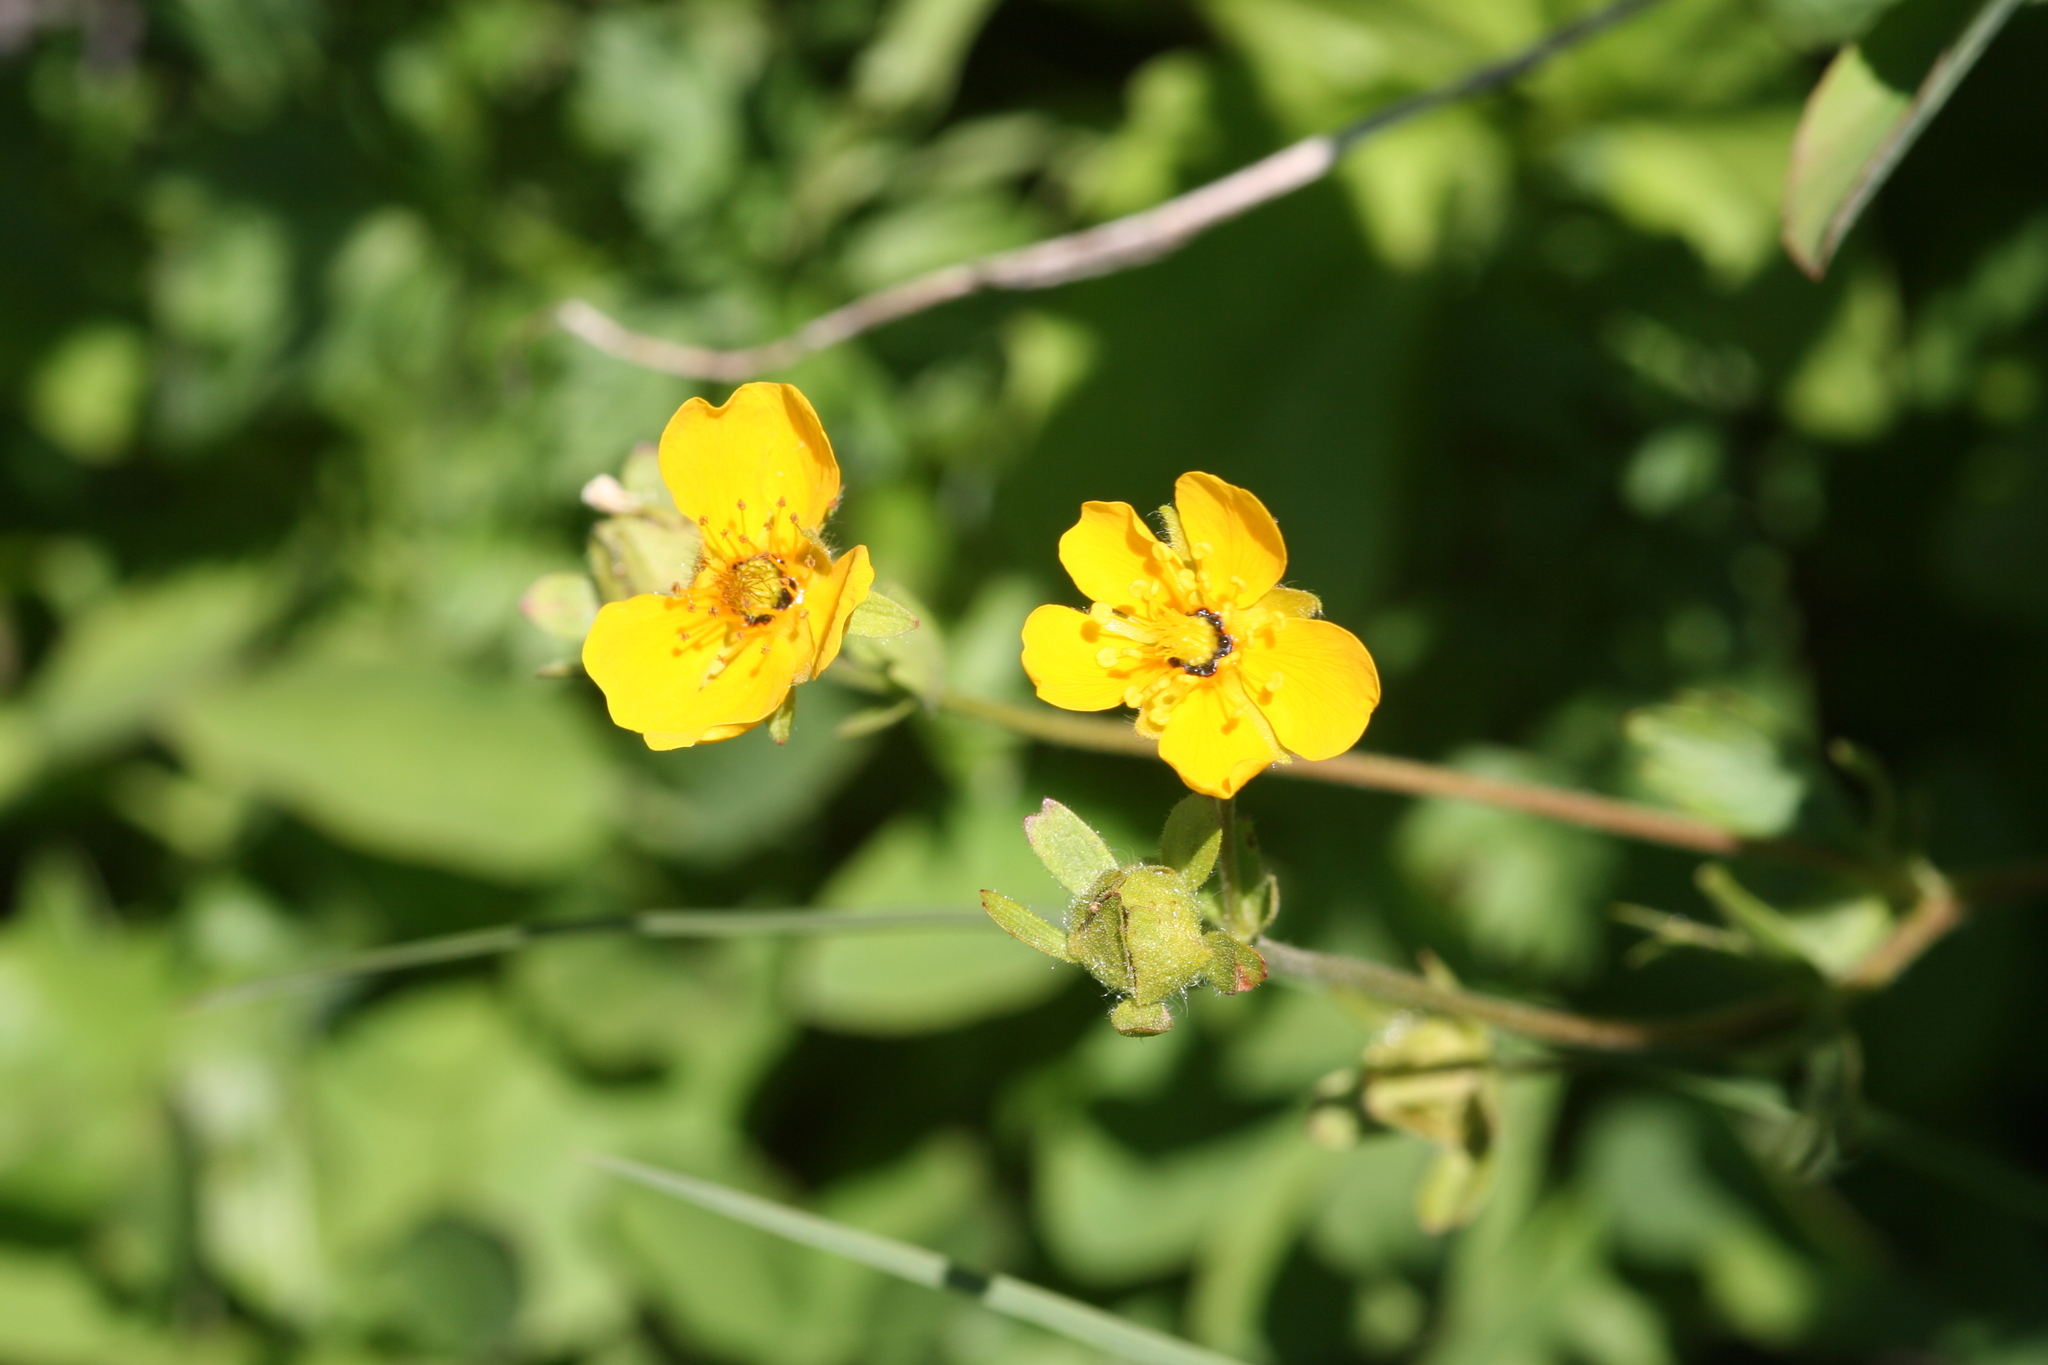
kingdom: Plantae
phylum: Tracheophyta
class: Magnoliopsida
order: Rosales
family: Rosaceae
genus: Potentilla
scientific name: Potentilla flabellifolia
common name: Mount rainier cinquefoil
